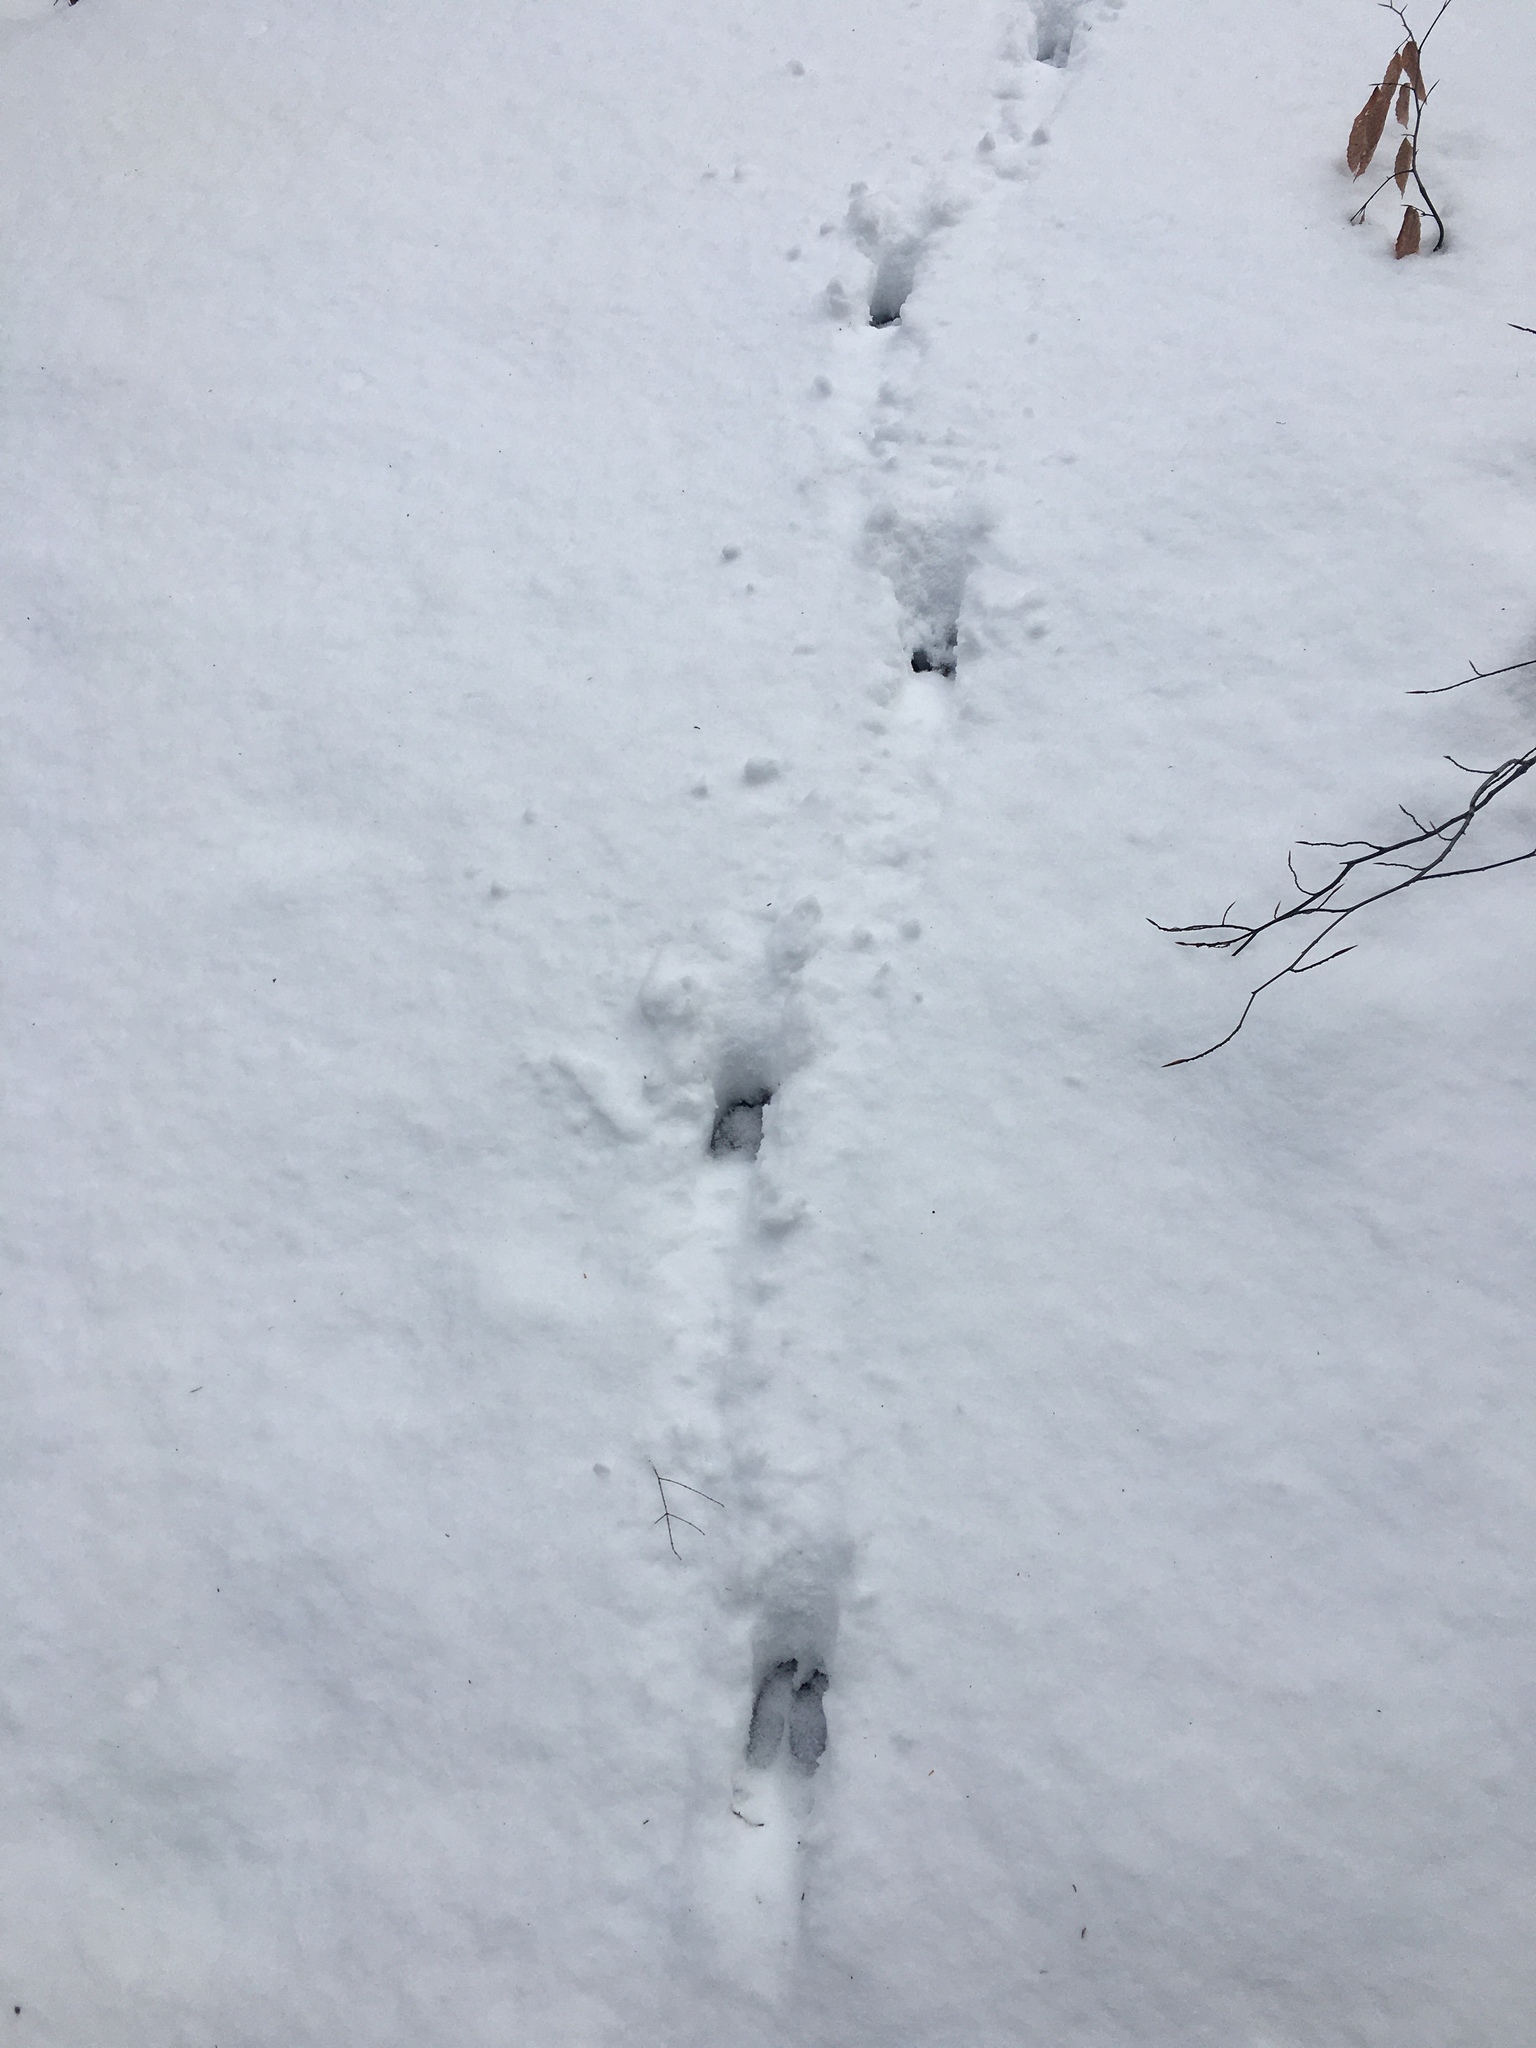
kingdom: Animalia
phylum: Chordata
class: Mammalia
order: Artiodactyla
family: Cervidae
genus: Odocoileus
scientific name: Odocoileus virginianus
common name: White-tailed deer
